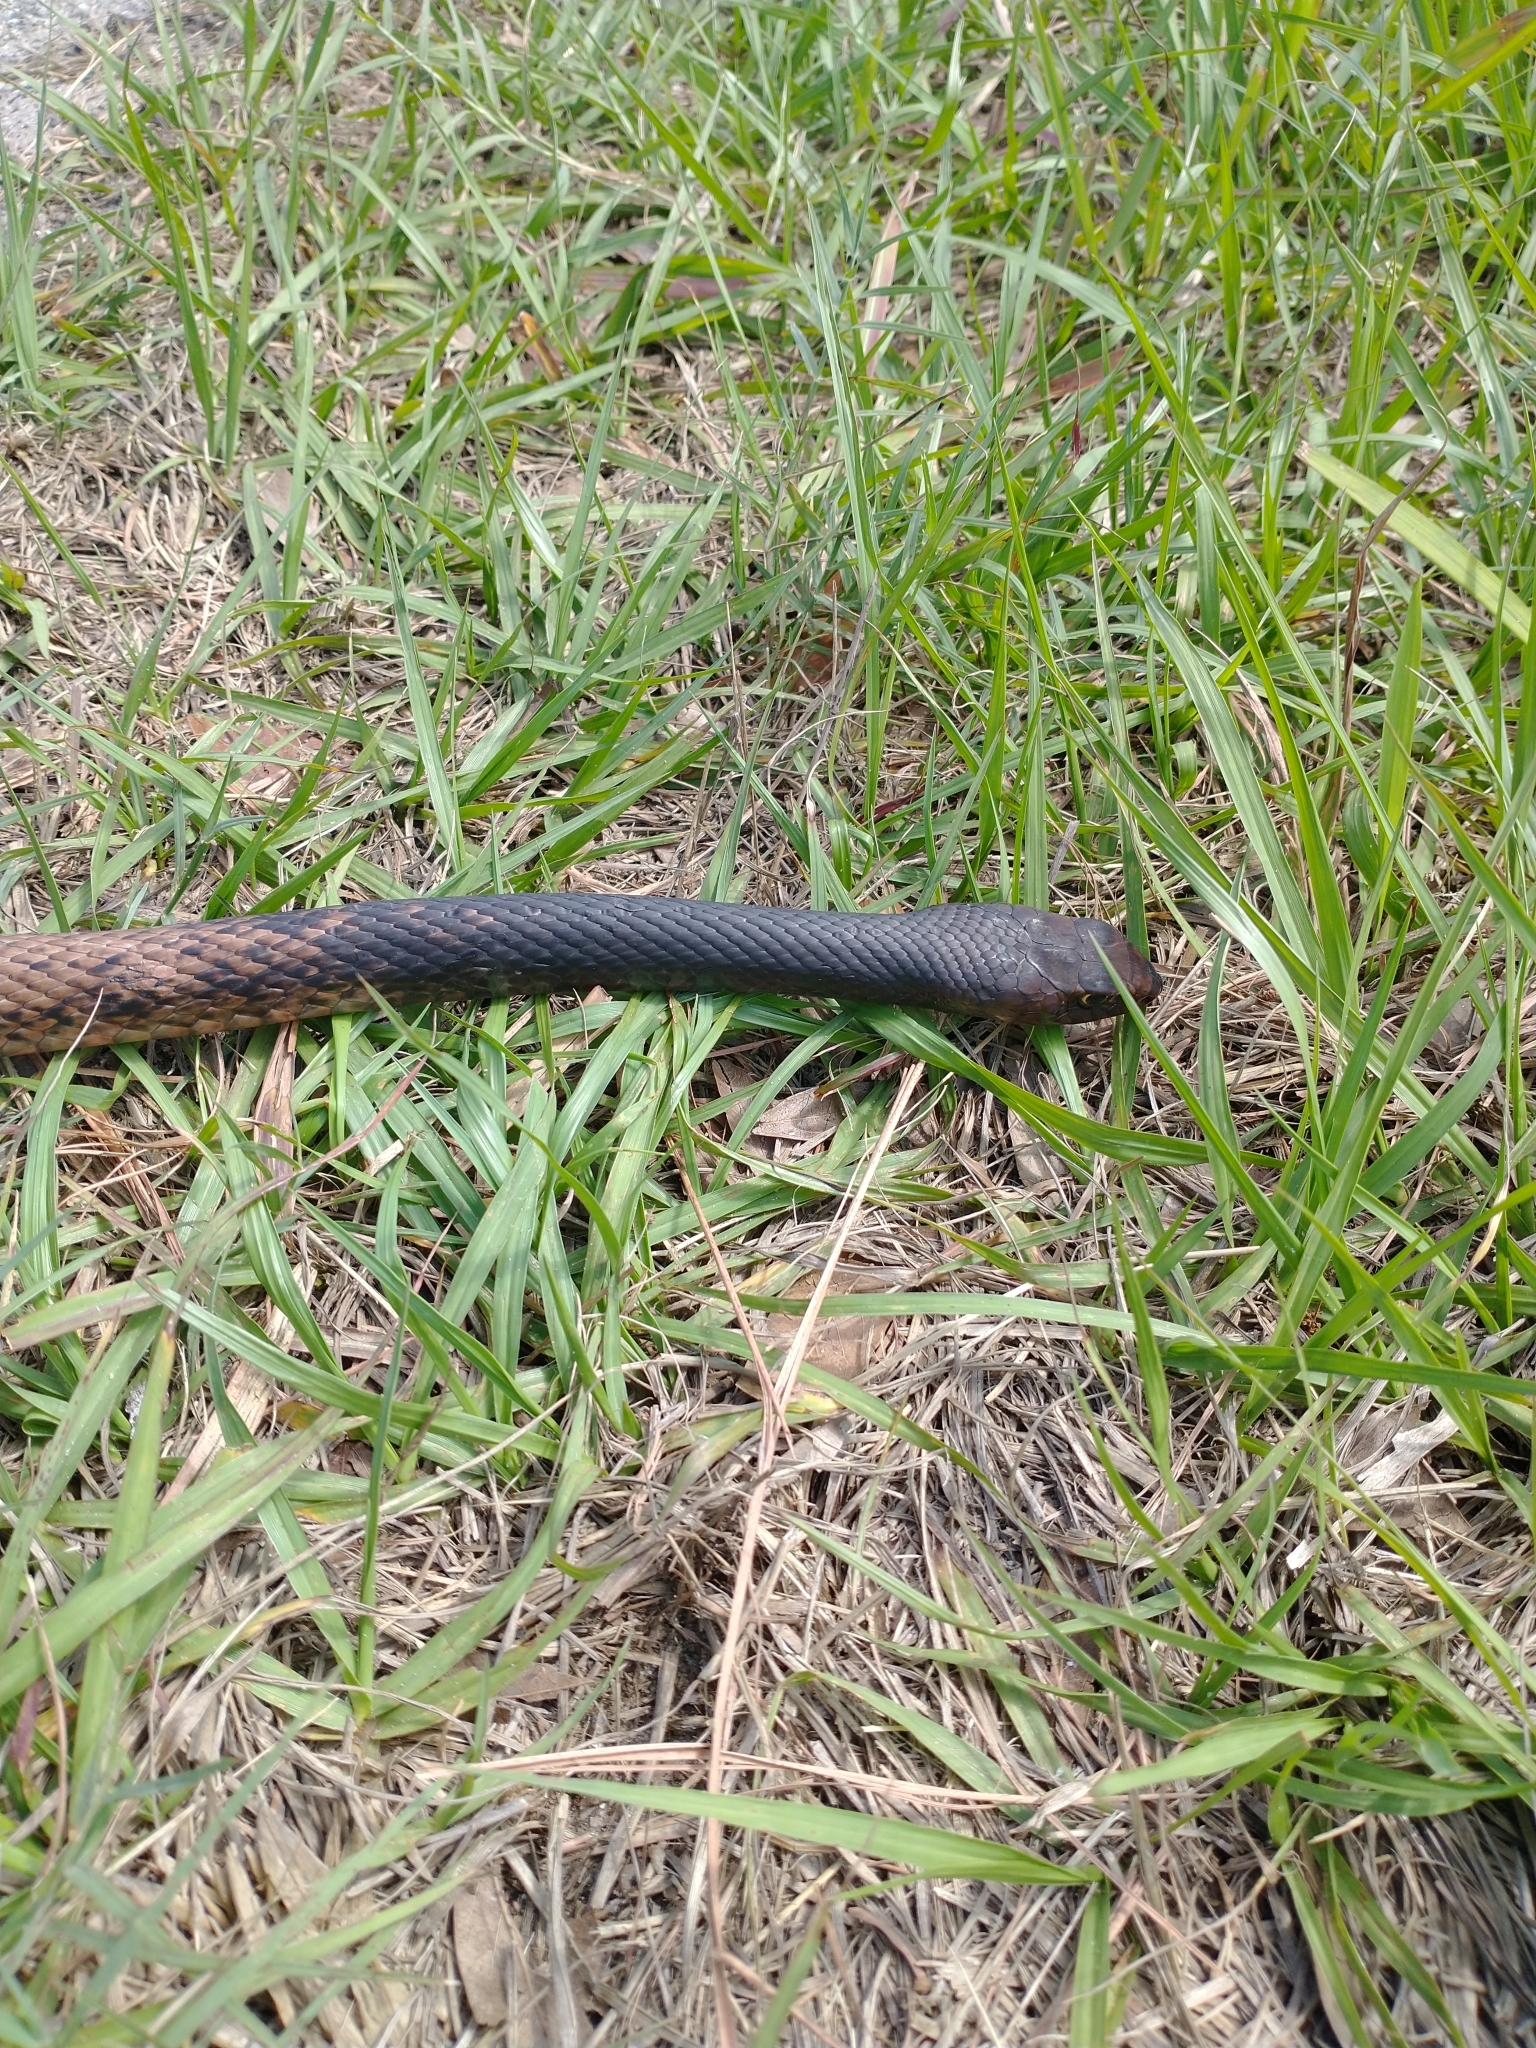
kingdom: Animalia
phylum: Chordata
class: Squamata
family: Colubridae
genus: Masticophis
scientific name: Masticophis flagellum
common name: Coachwhip
